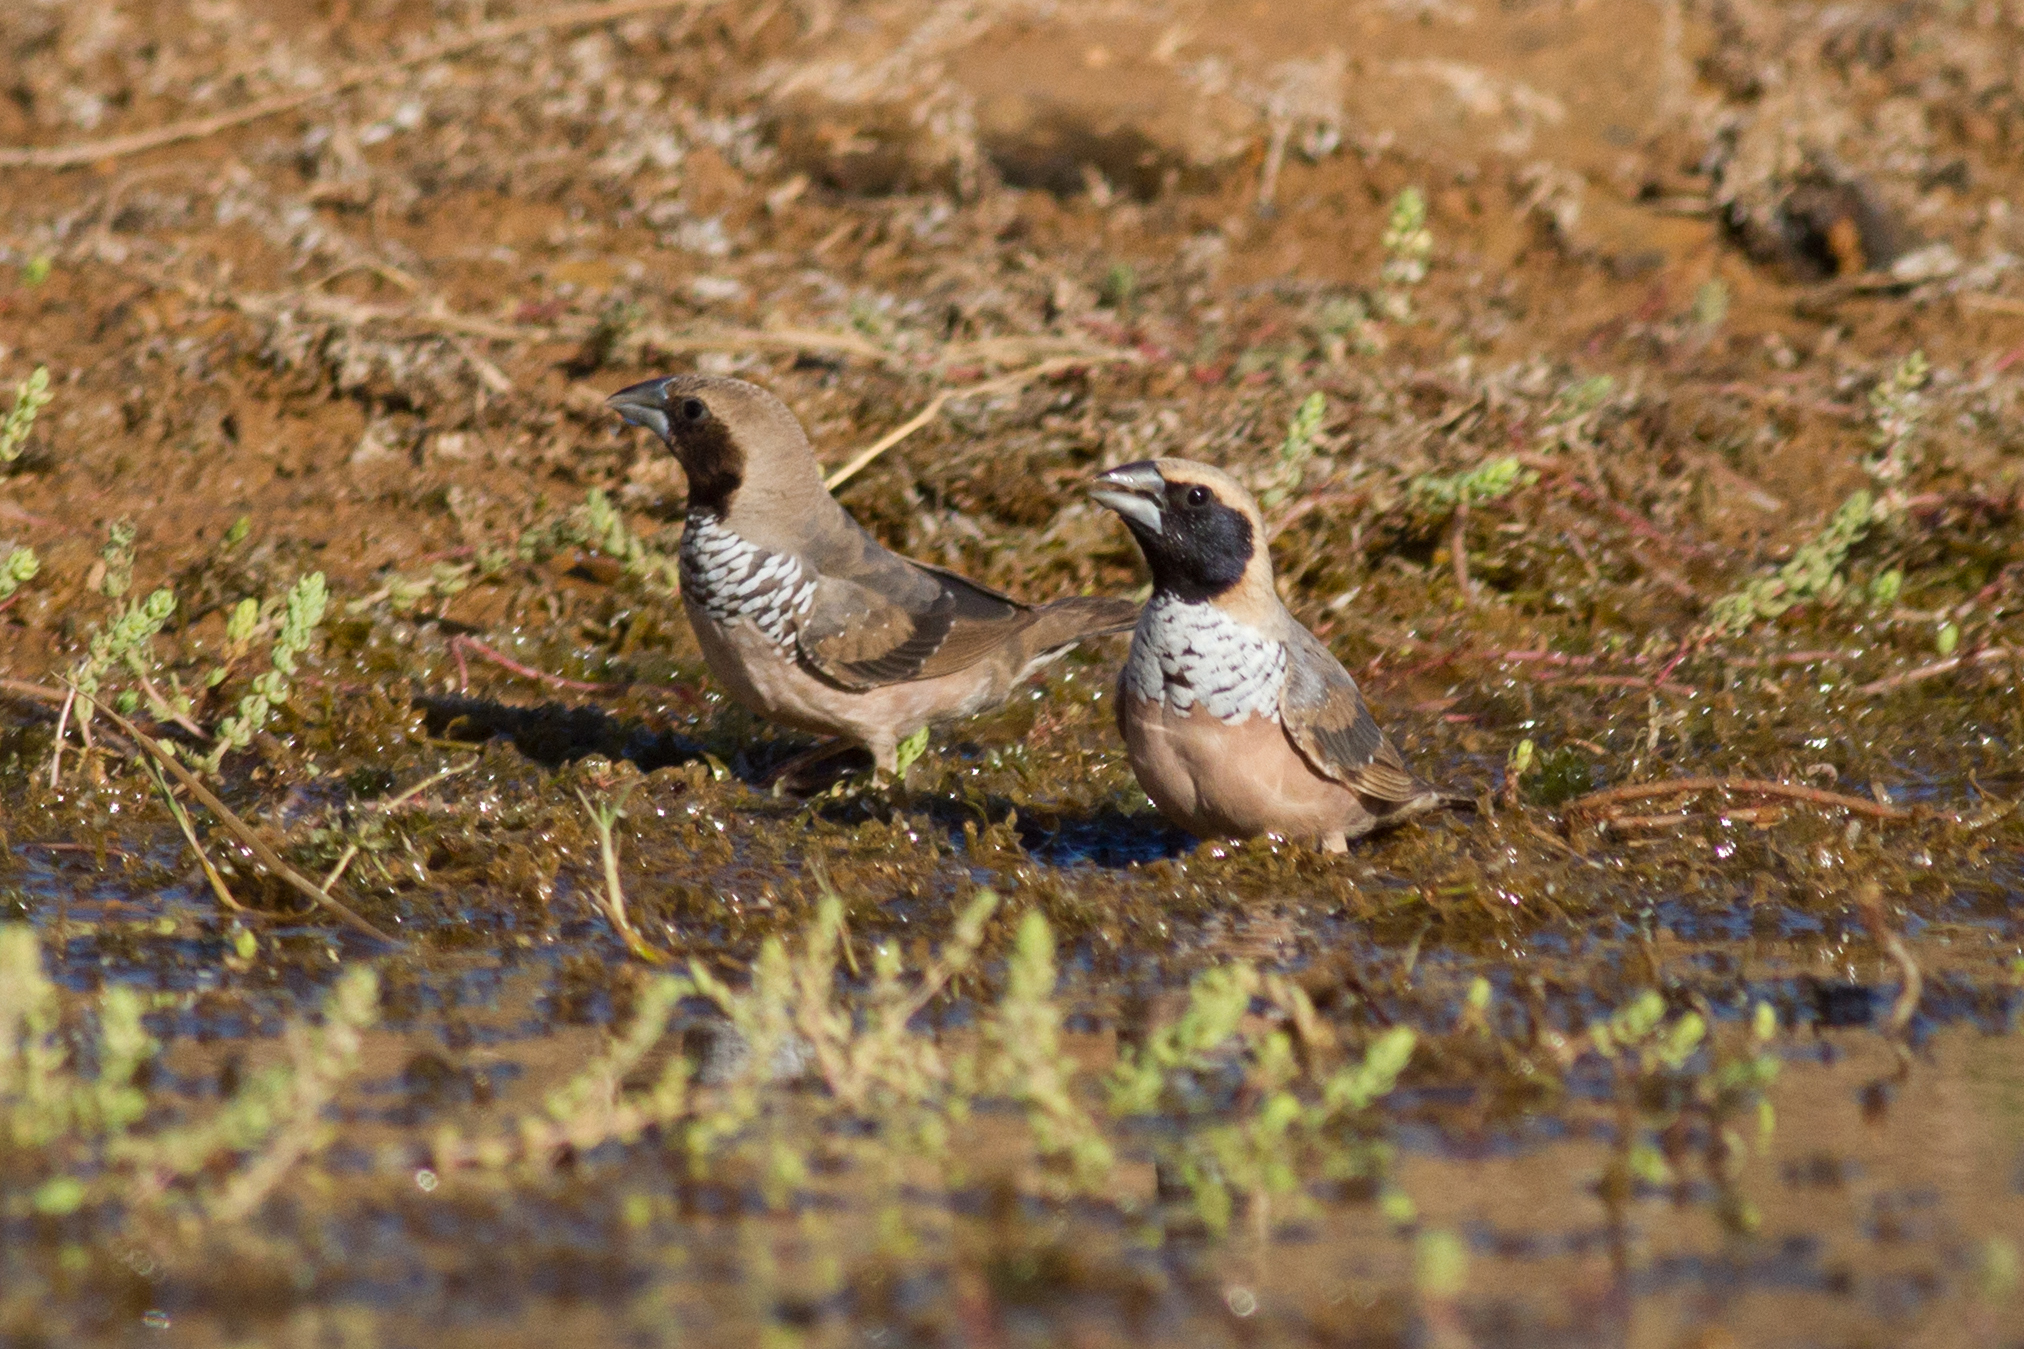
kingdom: Animalia
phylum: Chordata
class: Aves
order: Passeriformes
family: Estrildidae
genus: Heteromunia
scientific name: Heteromunia pectoralis
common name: Pictorella munia
